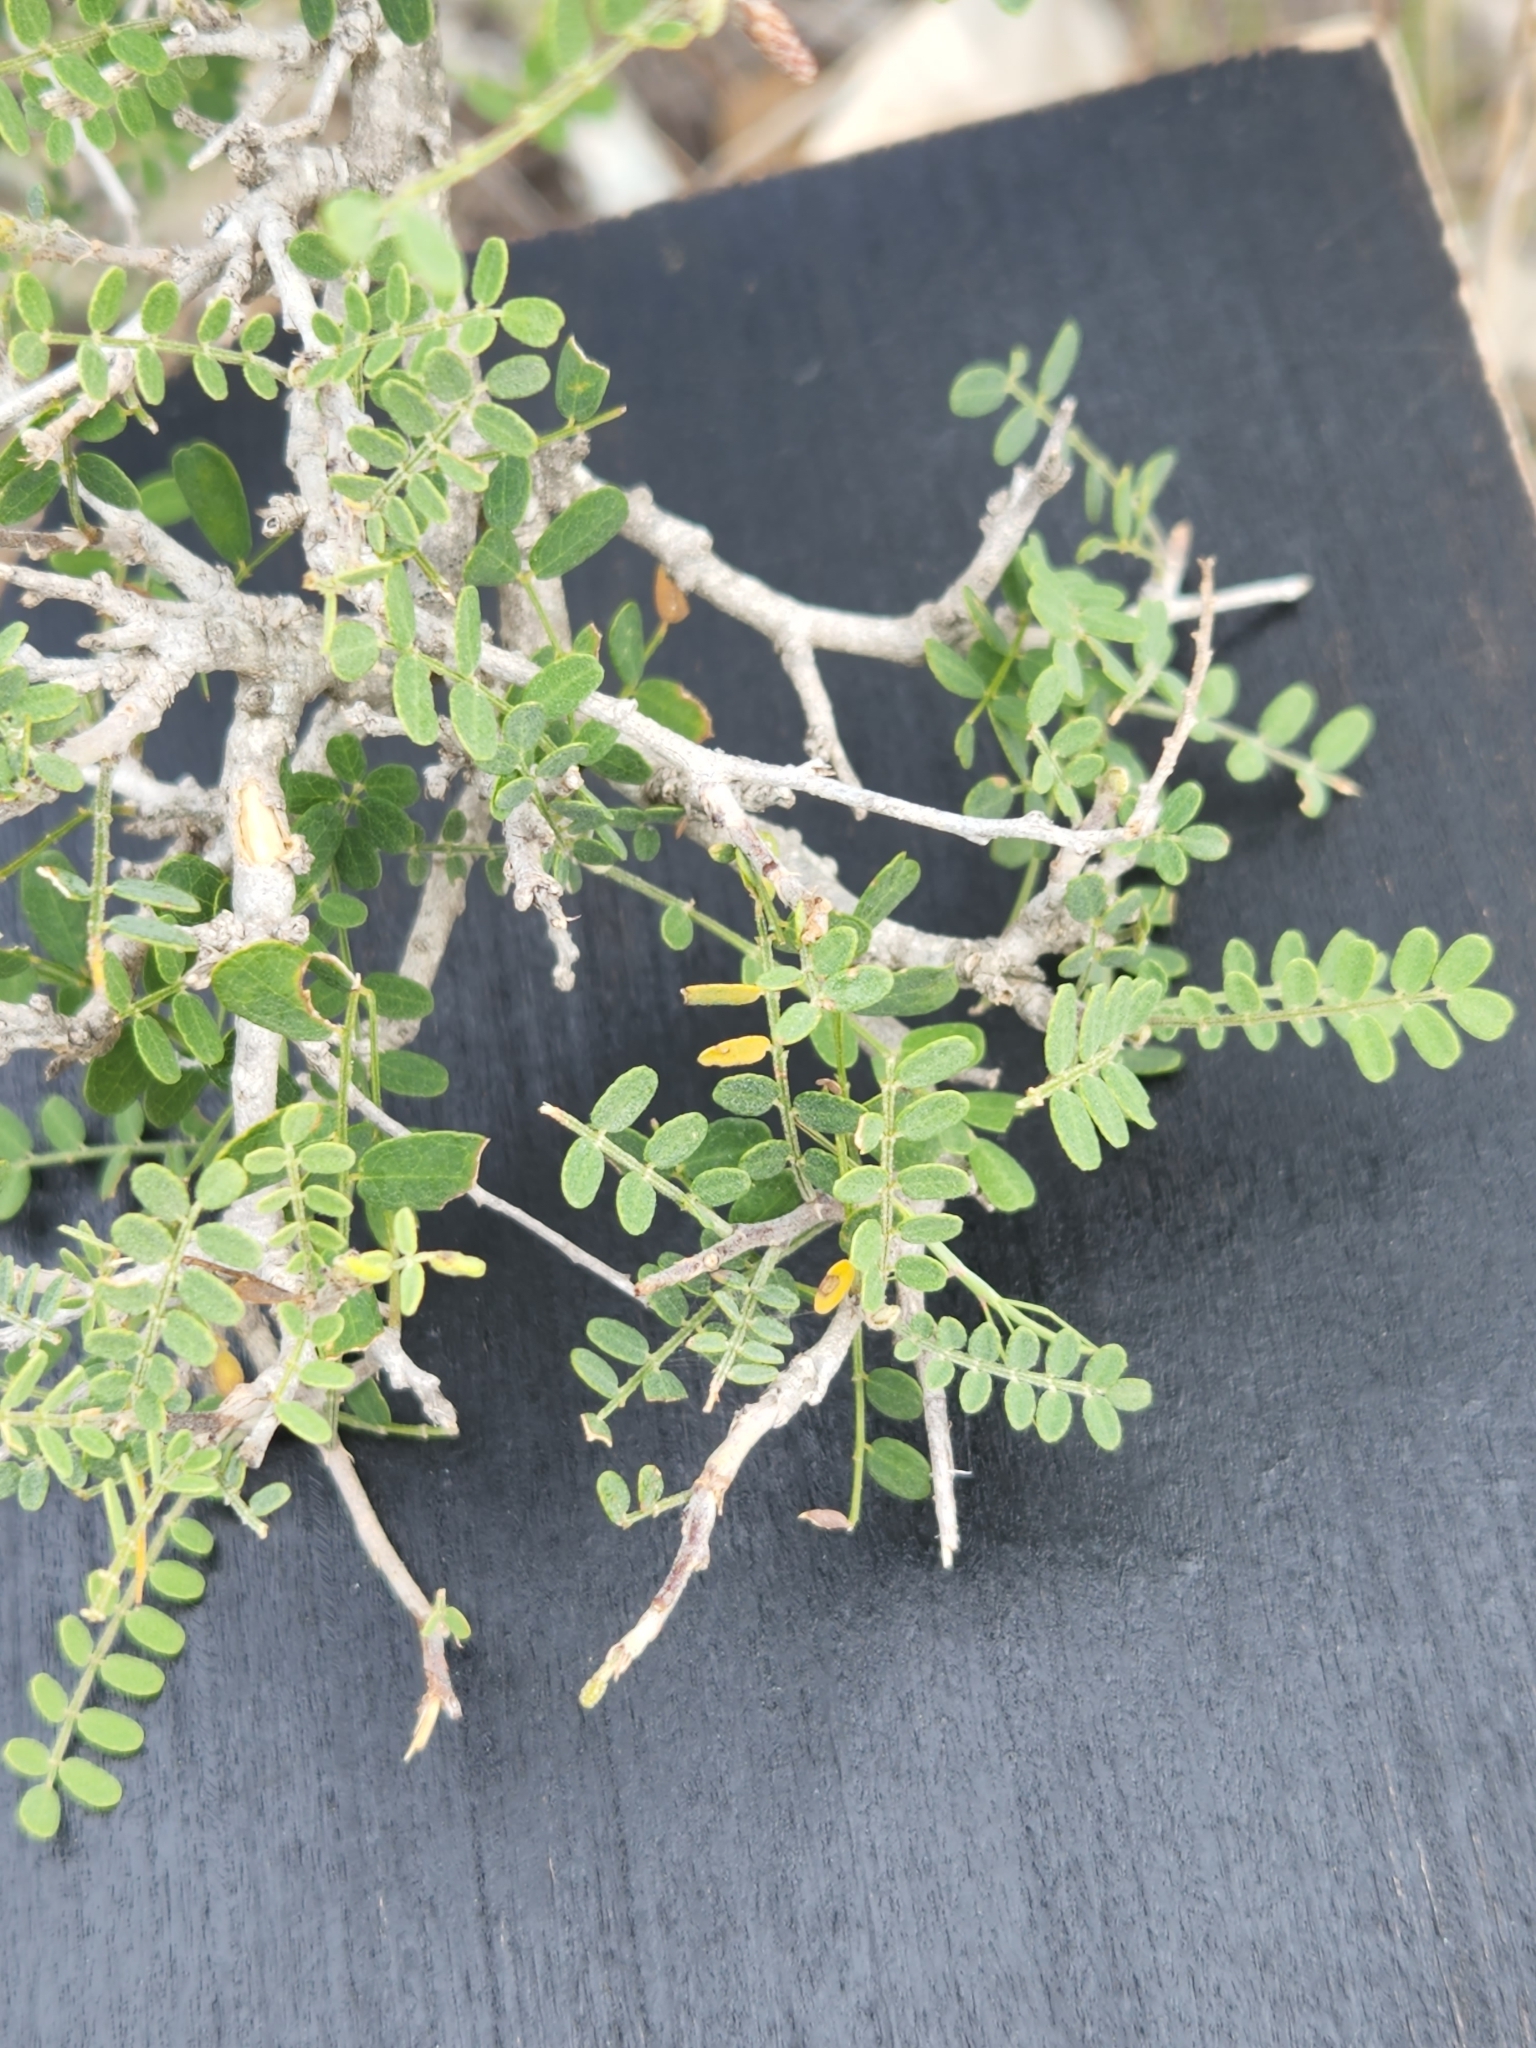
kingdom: Plantae
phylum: Tracheophyta
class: Magnoliopsida
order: Fabales
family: Fabaceae
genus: Eysenhardtia
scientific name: Eysenhardtia texana
